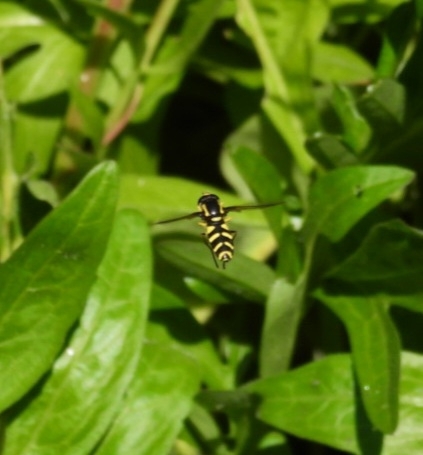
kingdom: Animalia
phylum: Arthropoda
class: Insecta
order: Diptera
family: Syrphidae
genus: Xanthogramma
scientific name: Xanthogramma
